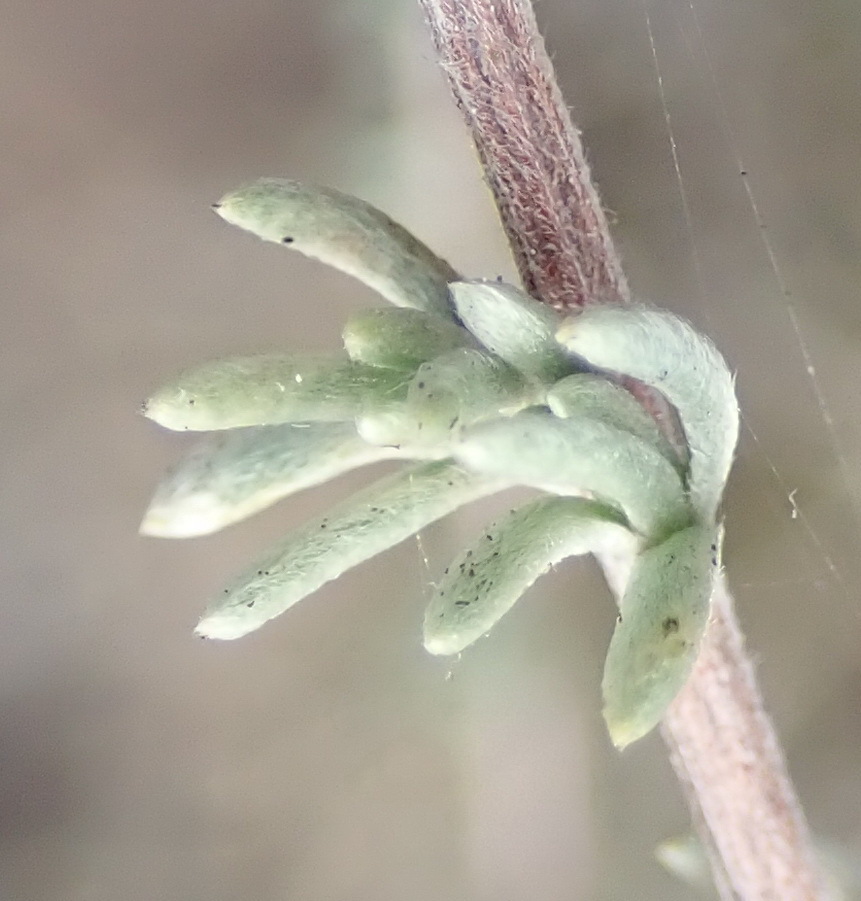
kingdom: Plantae
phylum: Tracheophyta
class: Magnoliopsida
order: Asterales
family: Asteraceae
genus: Eriocephalus
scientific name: Eriocephalus tenuipes
